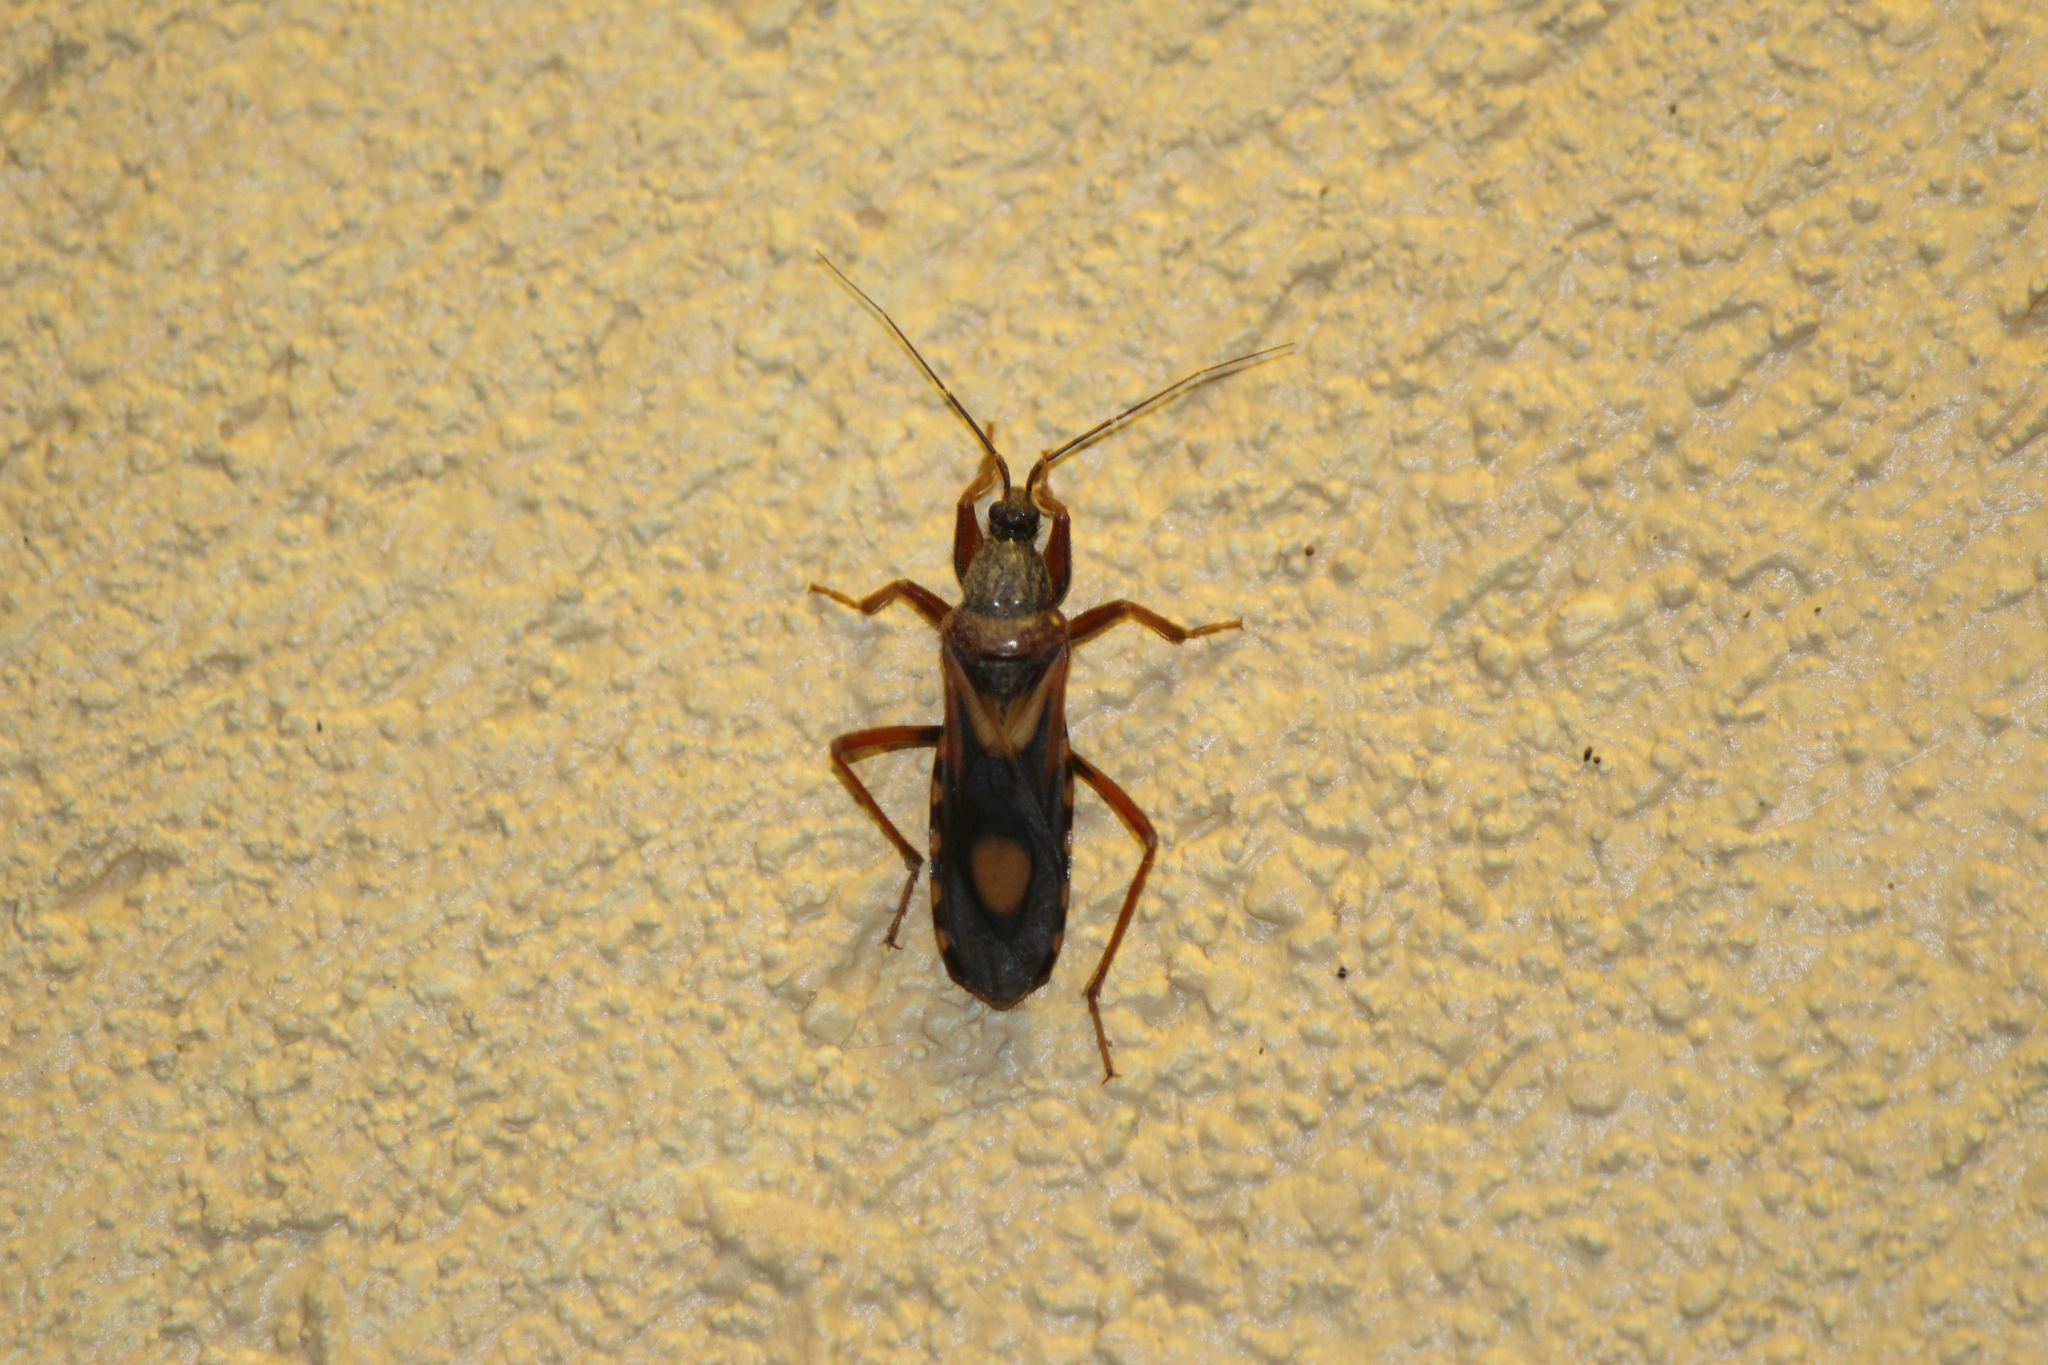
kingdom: Animalia
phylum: Arthropoda
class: Insecta
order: Hemiptera
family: Reduviidae
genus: Rasahus
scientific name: Rasahus thoracicus
